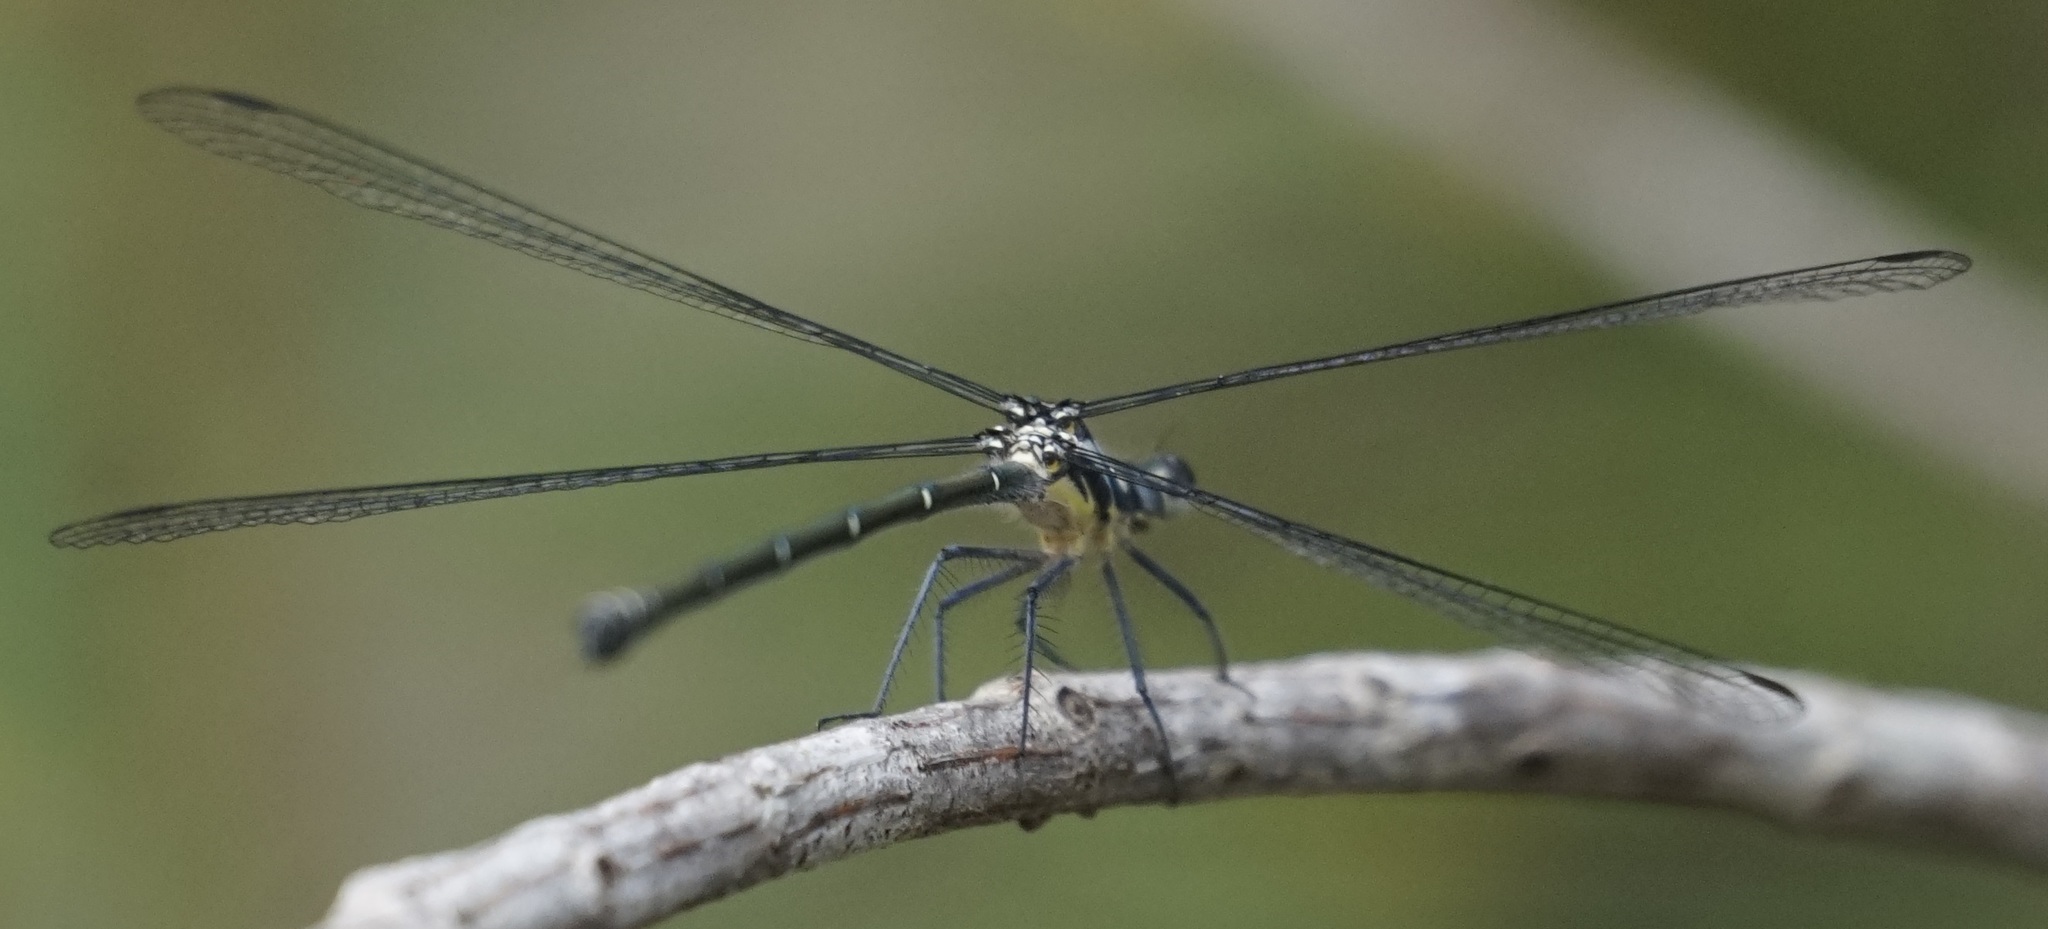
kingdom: Animalia
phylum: Arthropoda
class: Insecta
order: Odonata
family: Argiolestidae
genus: Austroargiolestes
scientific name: Austroargiolestes icteromelas
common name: Common flatwing
